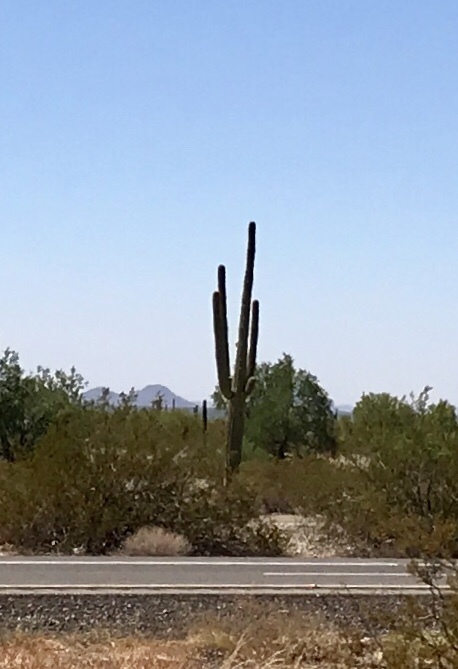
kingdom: Plantae
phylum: Tracheophyta
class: Magnoliopsida
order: Caryophyllales
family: Cactaceae
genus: Carnegiea
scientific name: Carnegiea gigantea
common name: Saguaro
